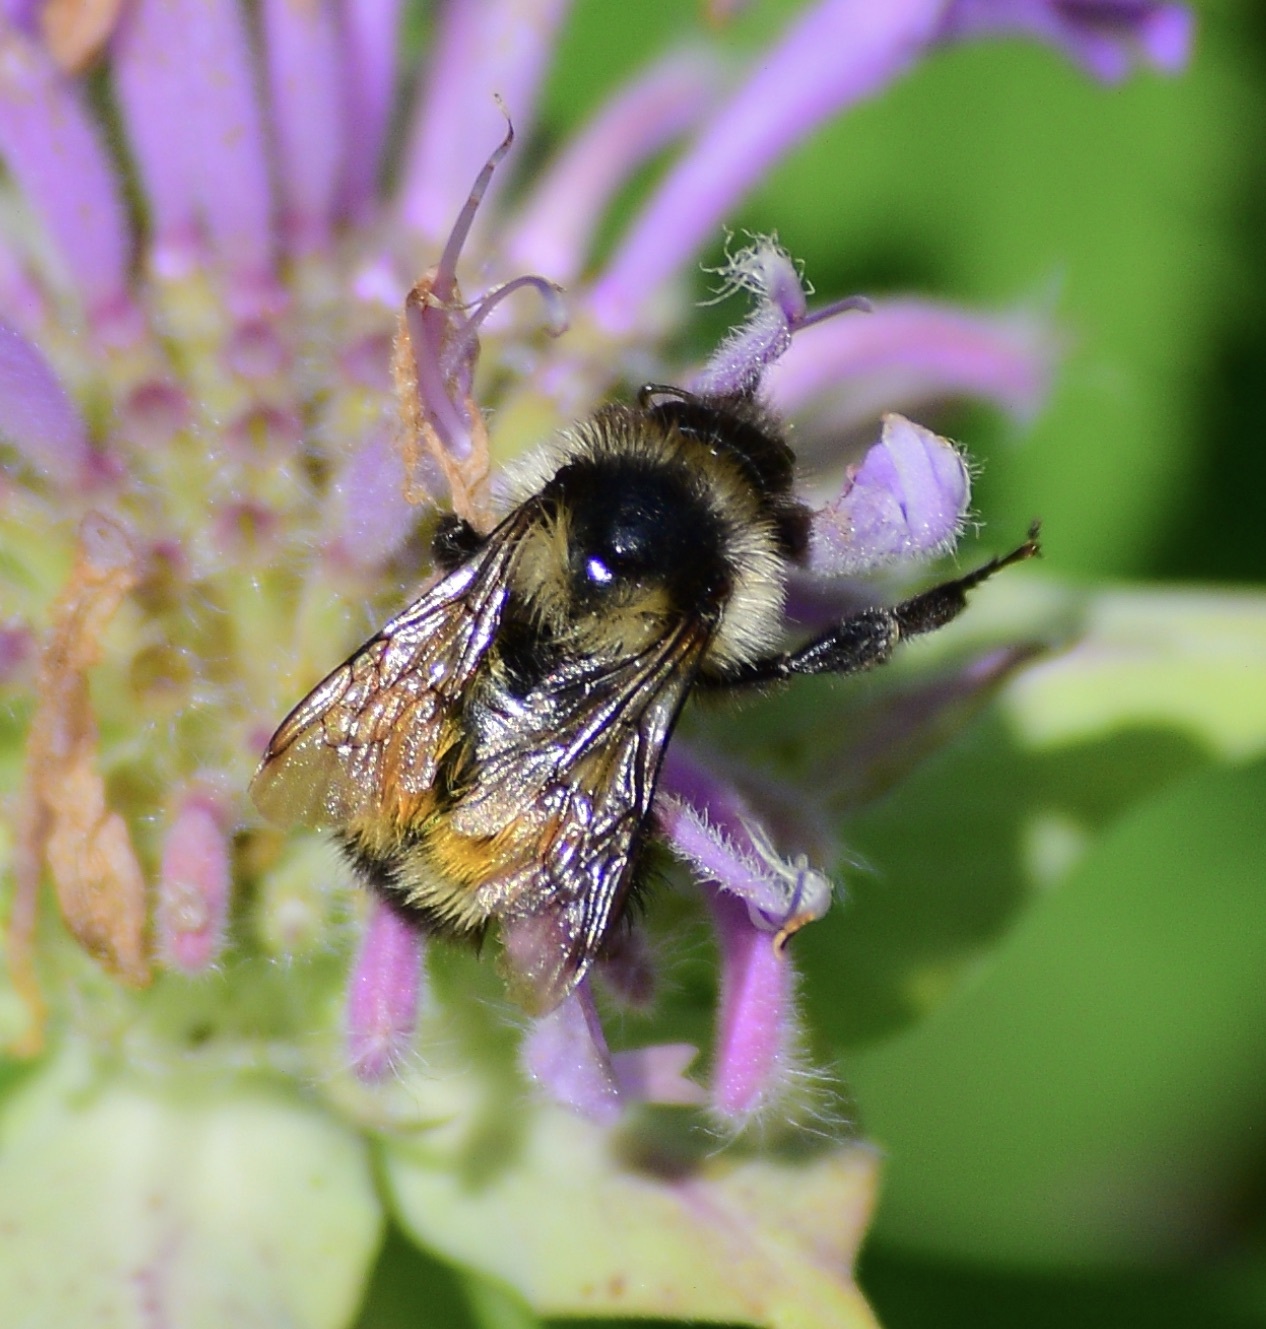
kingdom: Animalia
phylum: Arthropoda
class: Insecta
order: Hymenoptera
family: Apidae
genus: Bombus
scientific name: Bombus ternarius
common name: Tri-colored bumble bee
